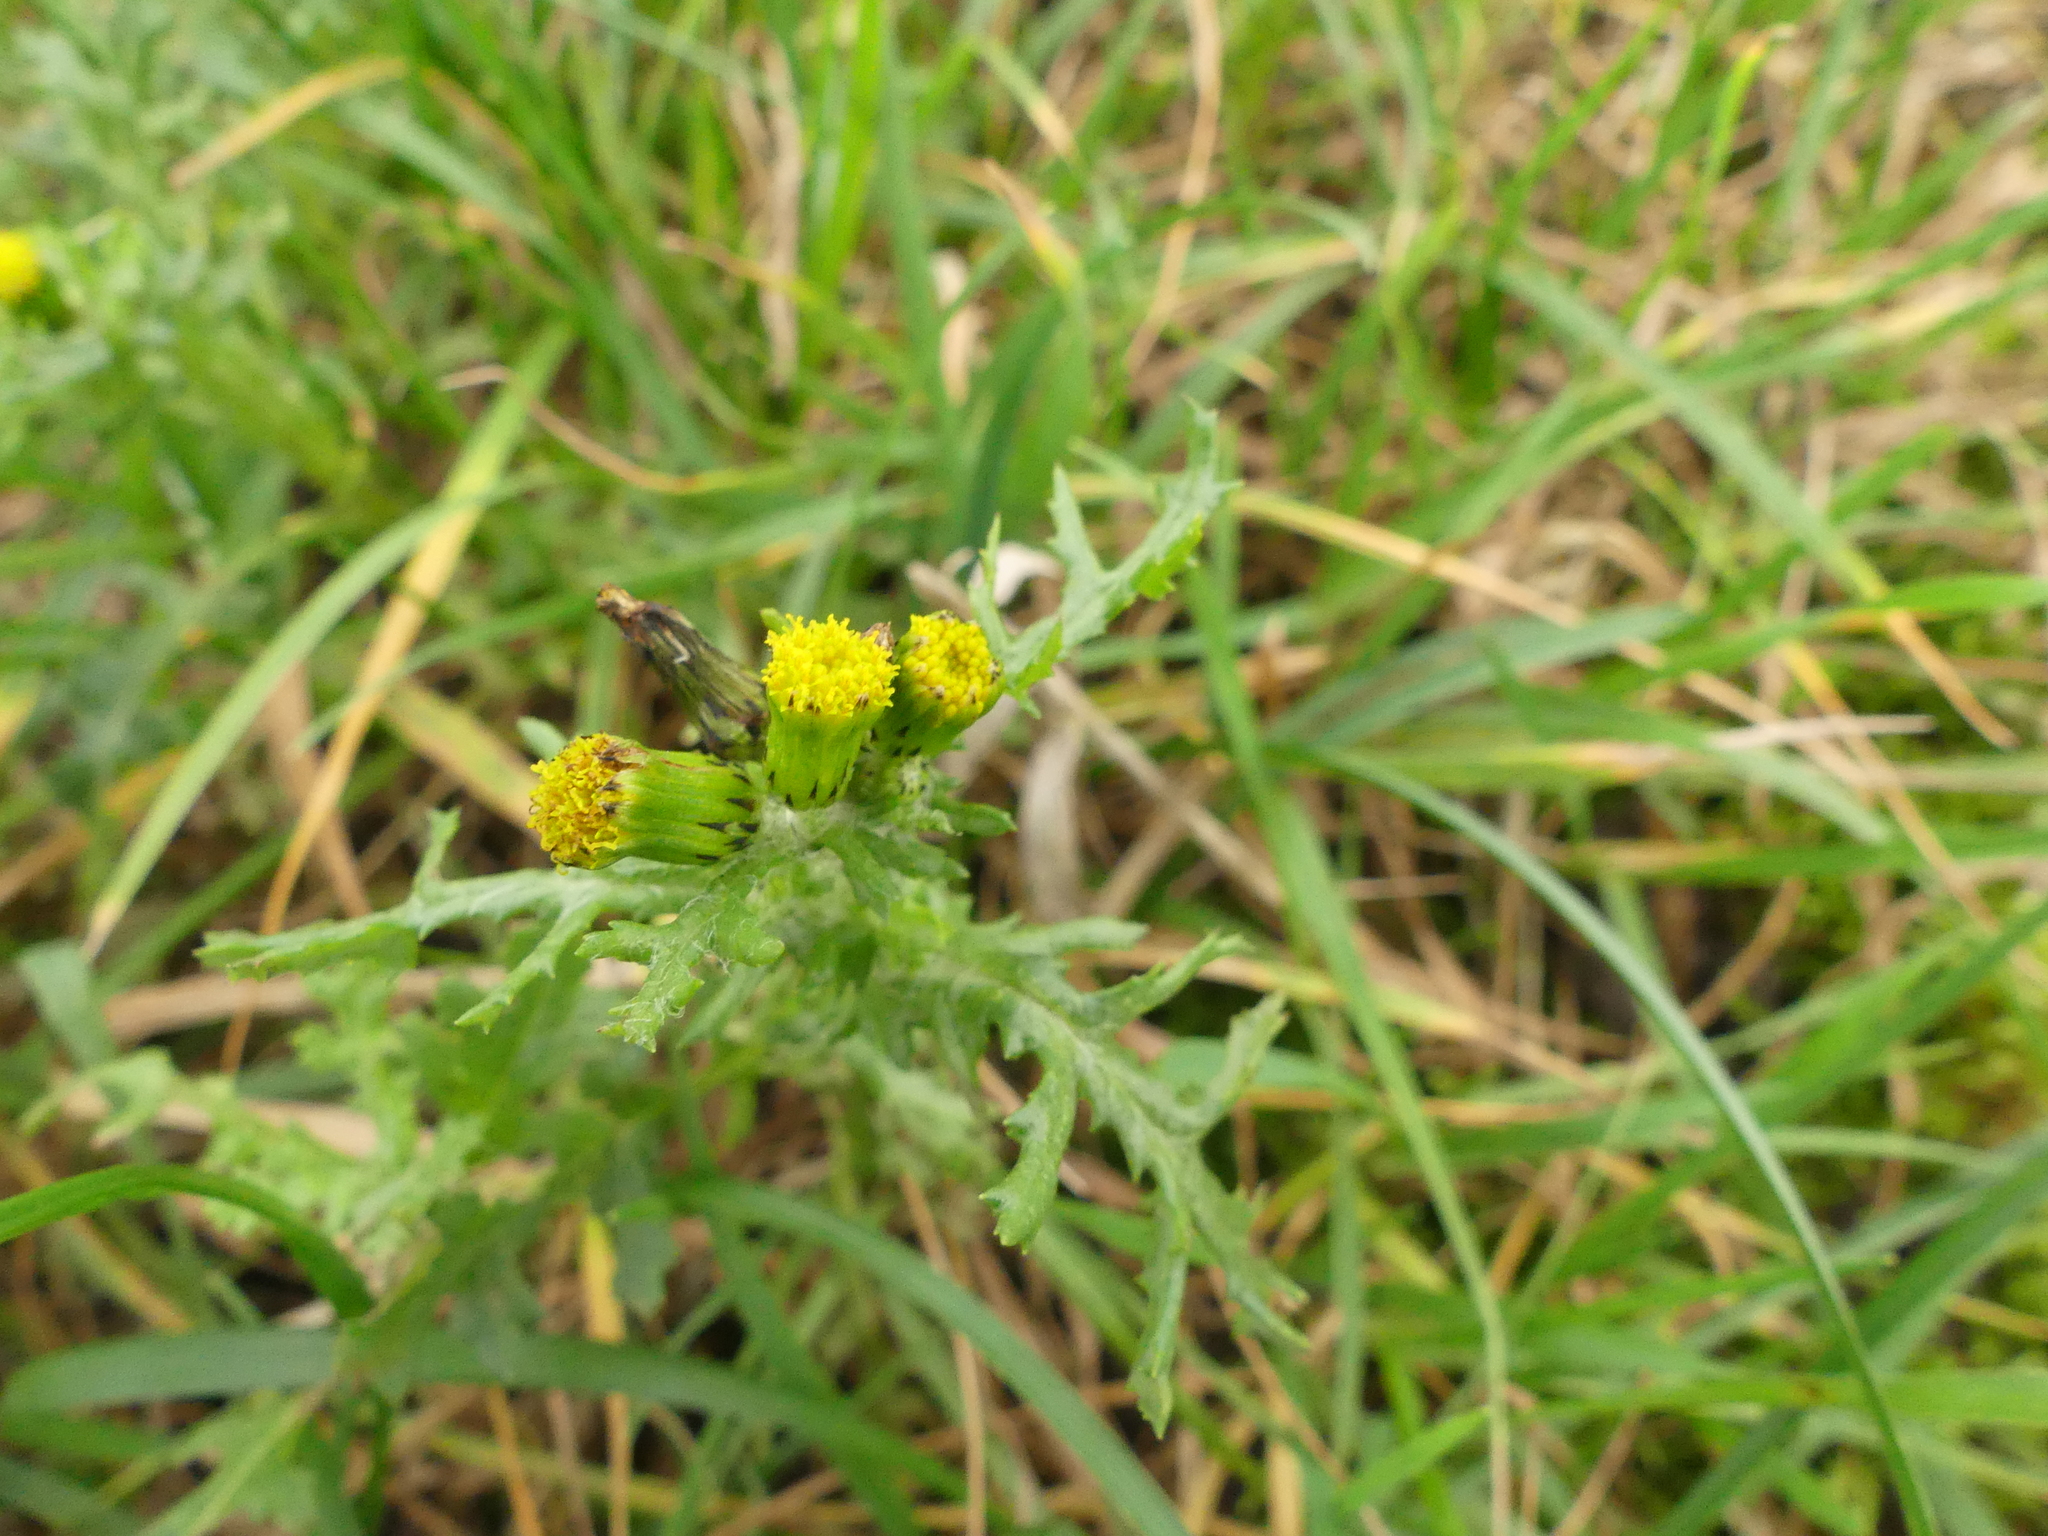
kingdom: Plantae
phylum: Tracheophyta
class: Magnoliopsida
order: Asterales
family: Asteraceae
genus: Senecio
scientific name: Senecio vulgaris
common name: Old-man-in-the-spring
